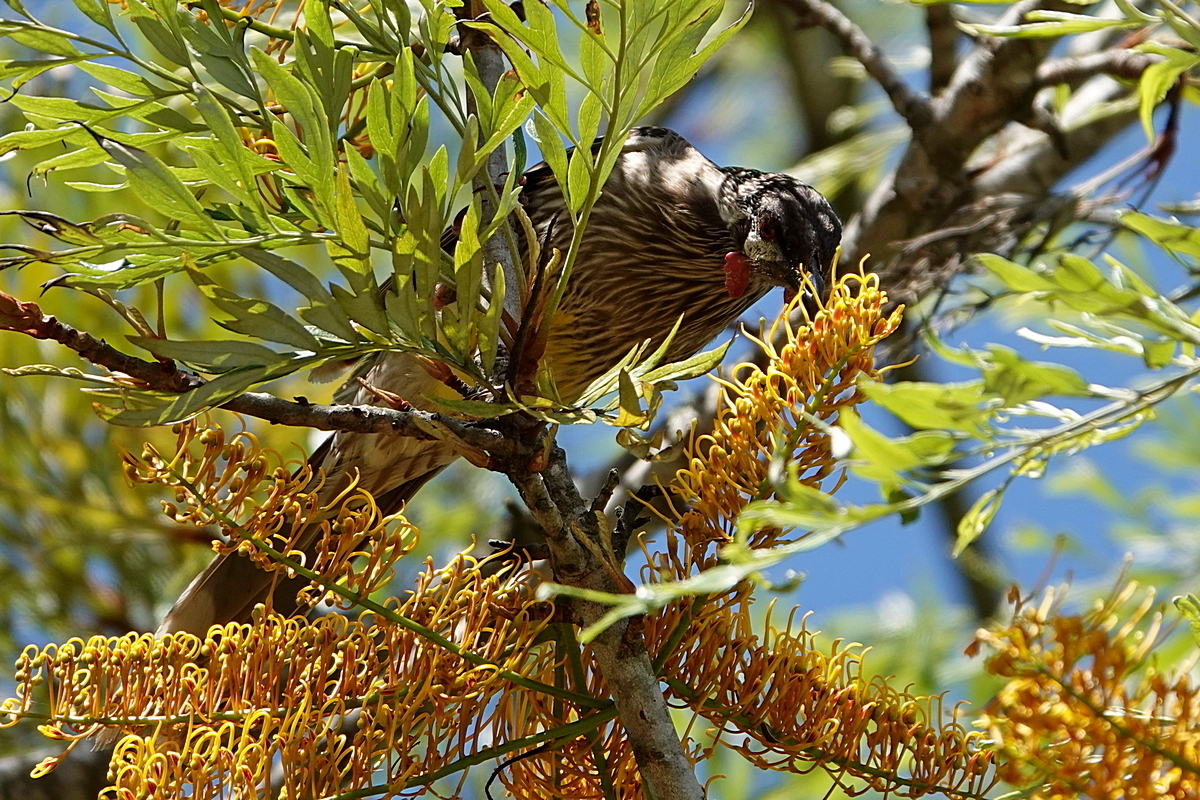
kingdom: Animalia
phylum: Chordata
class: Aves
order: Passeriformes
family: Meliphagidae
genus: Anthochaera
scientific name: Anthochaera carunculata
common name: Red wattlebird
